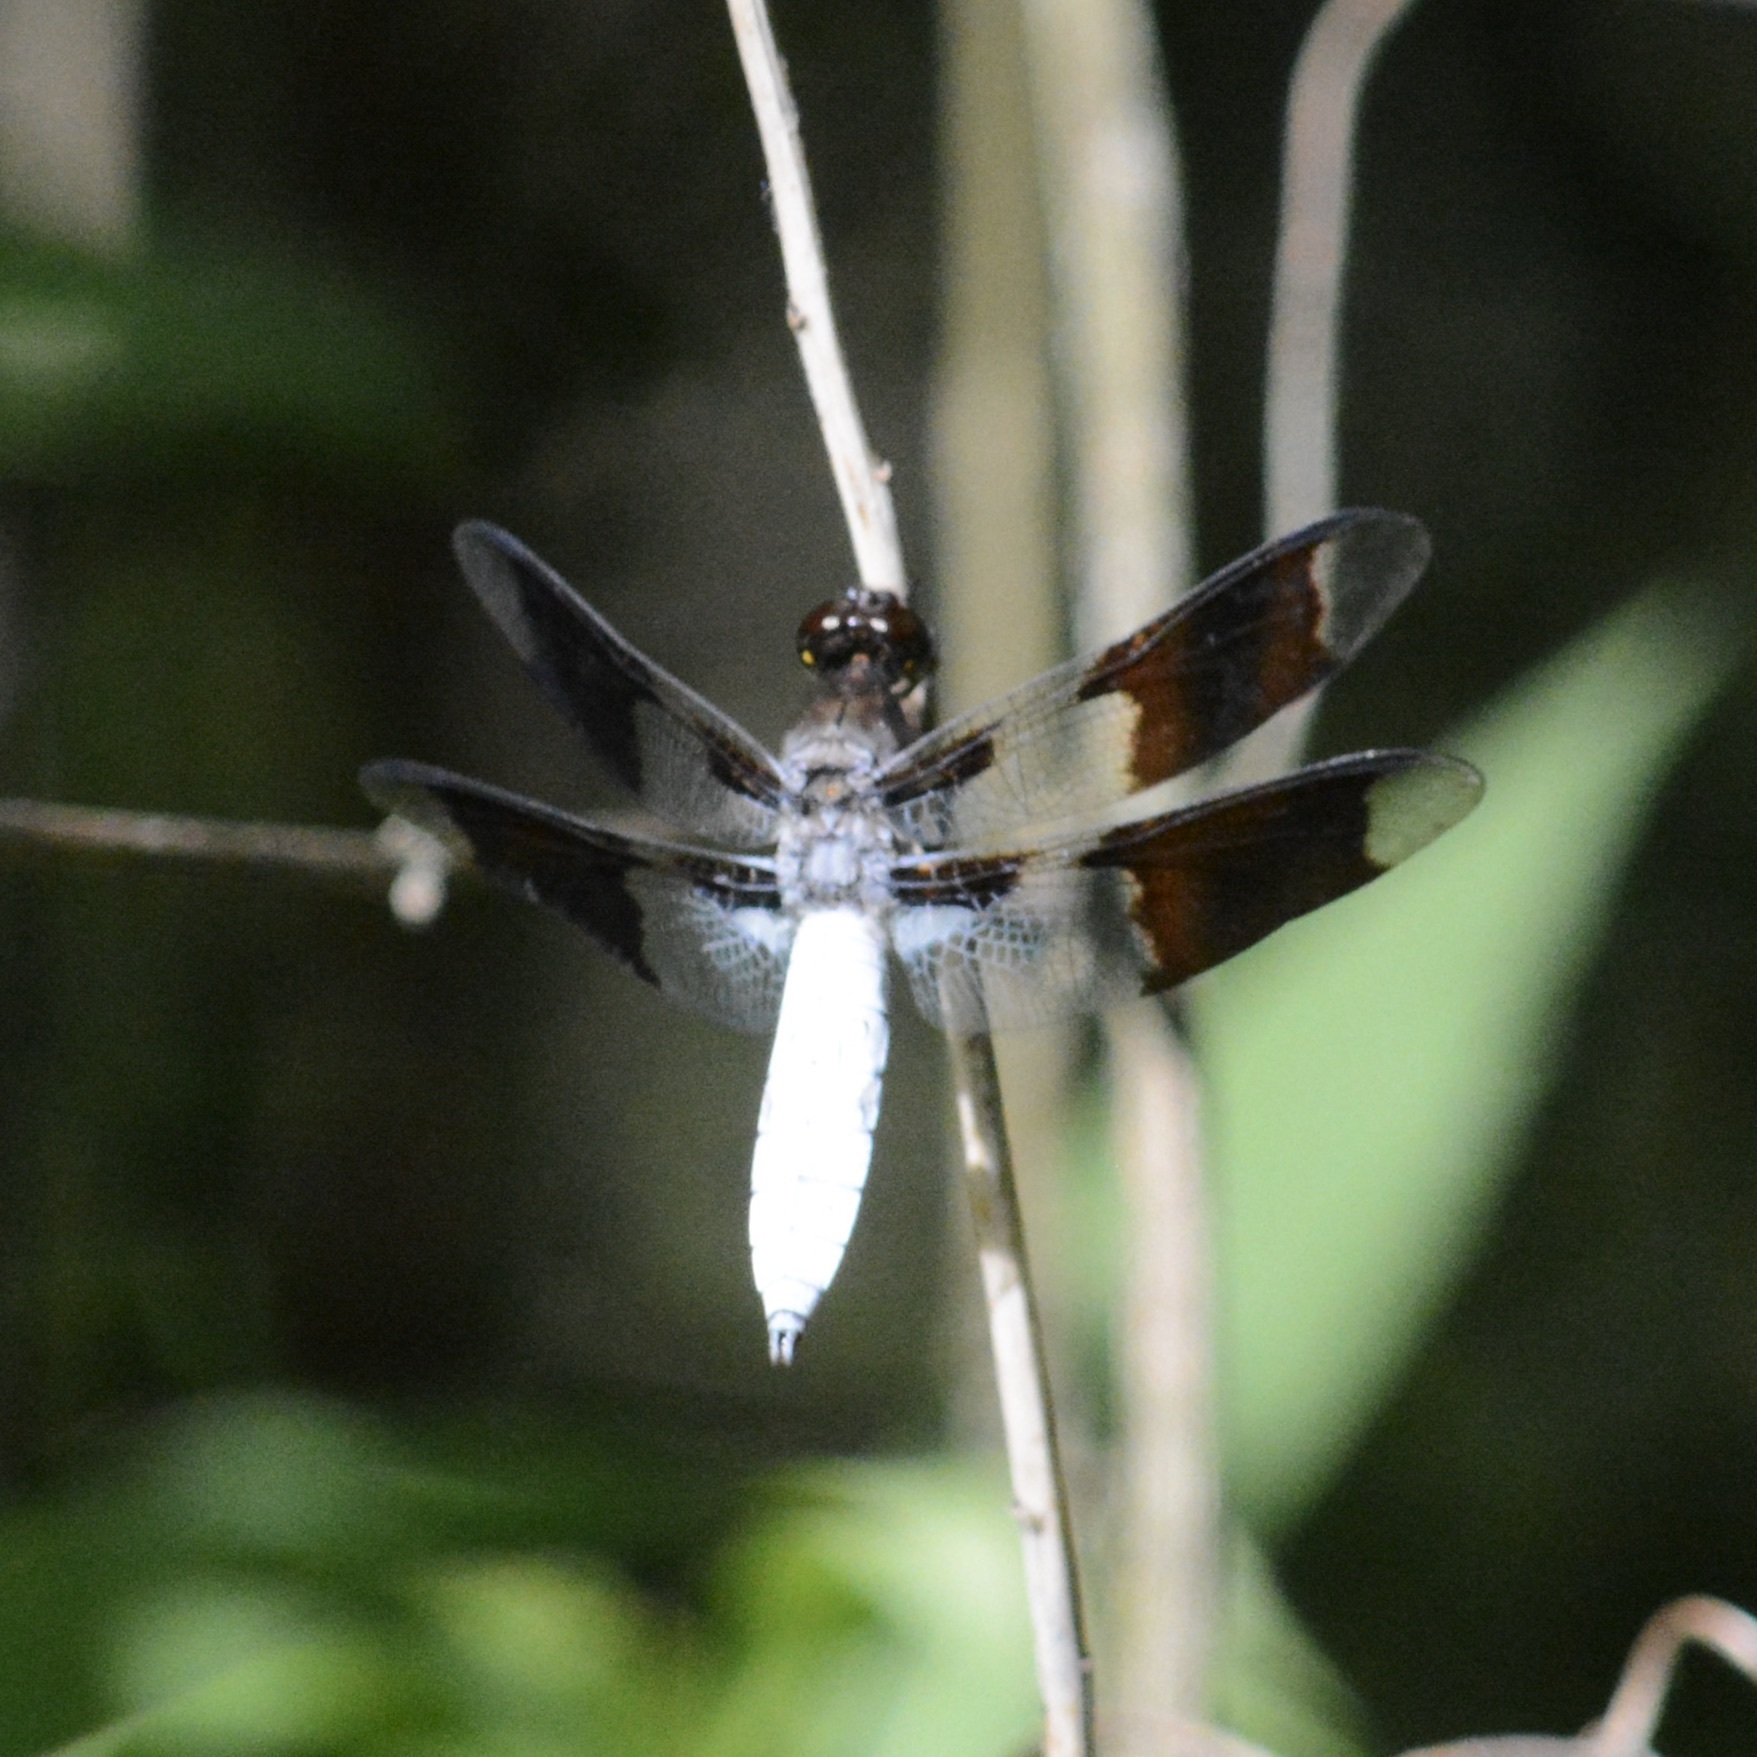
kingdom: Animalia
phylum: Arthropoda
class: Insecta
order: Odonata
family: Libellulidae
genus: Plathemis
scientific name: Plathemis lydia
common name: Common whitetail
